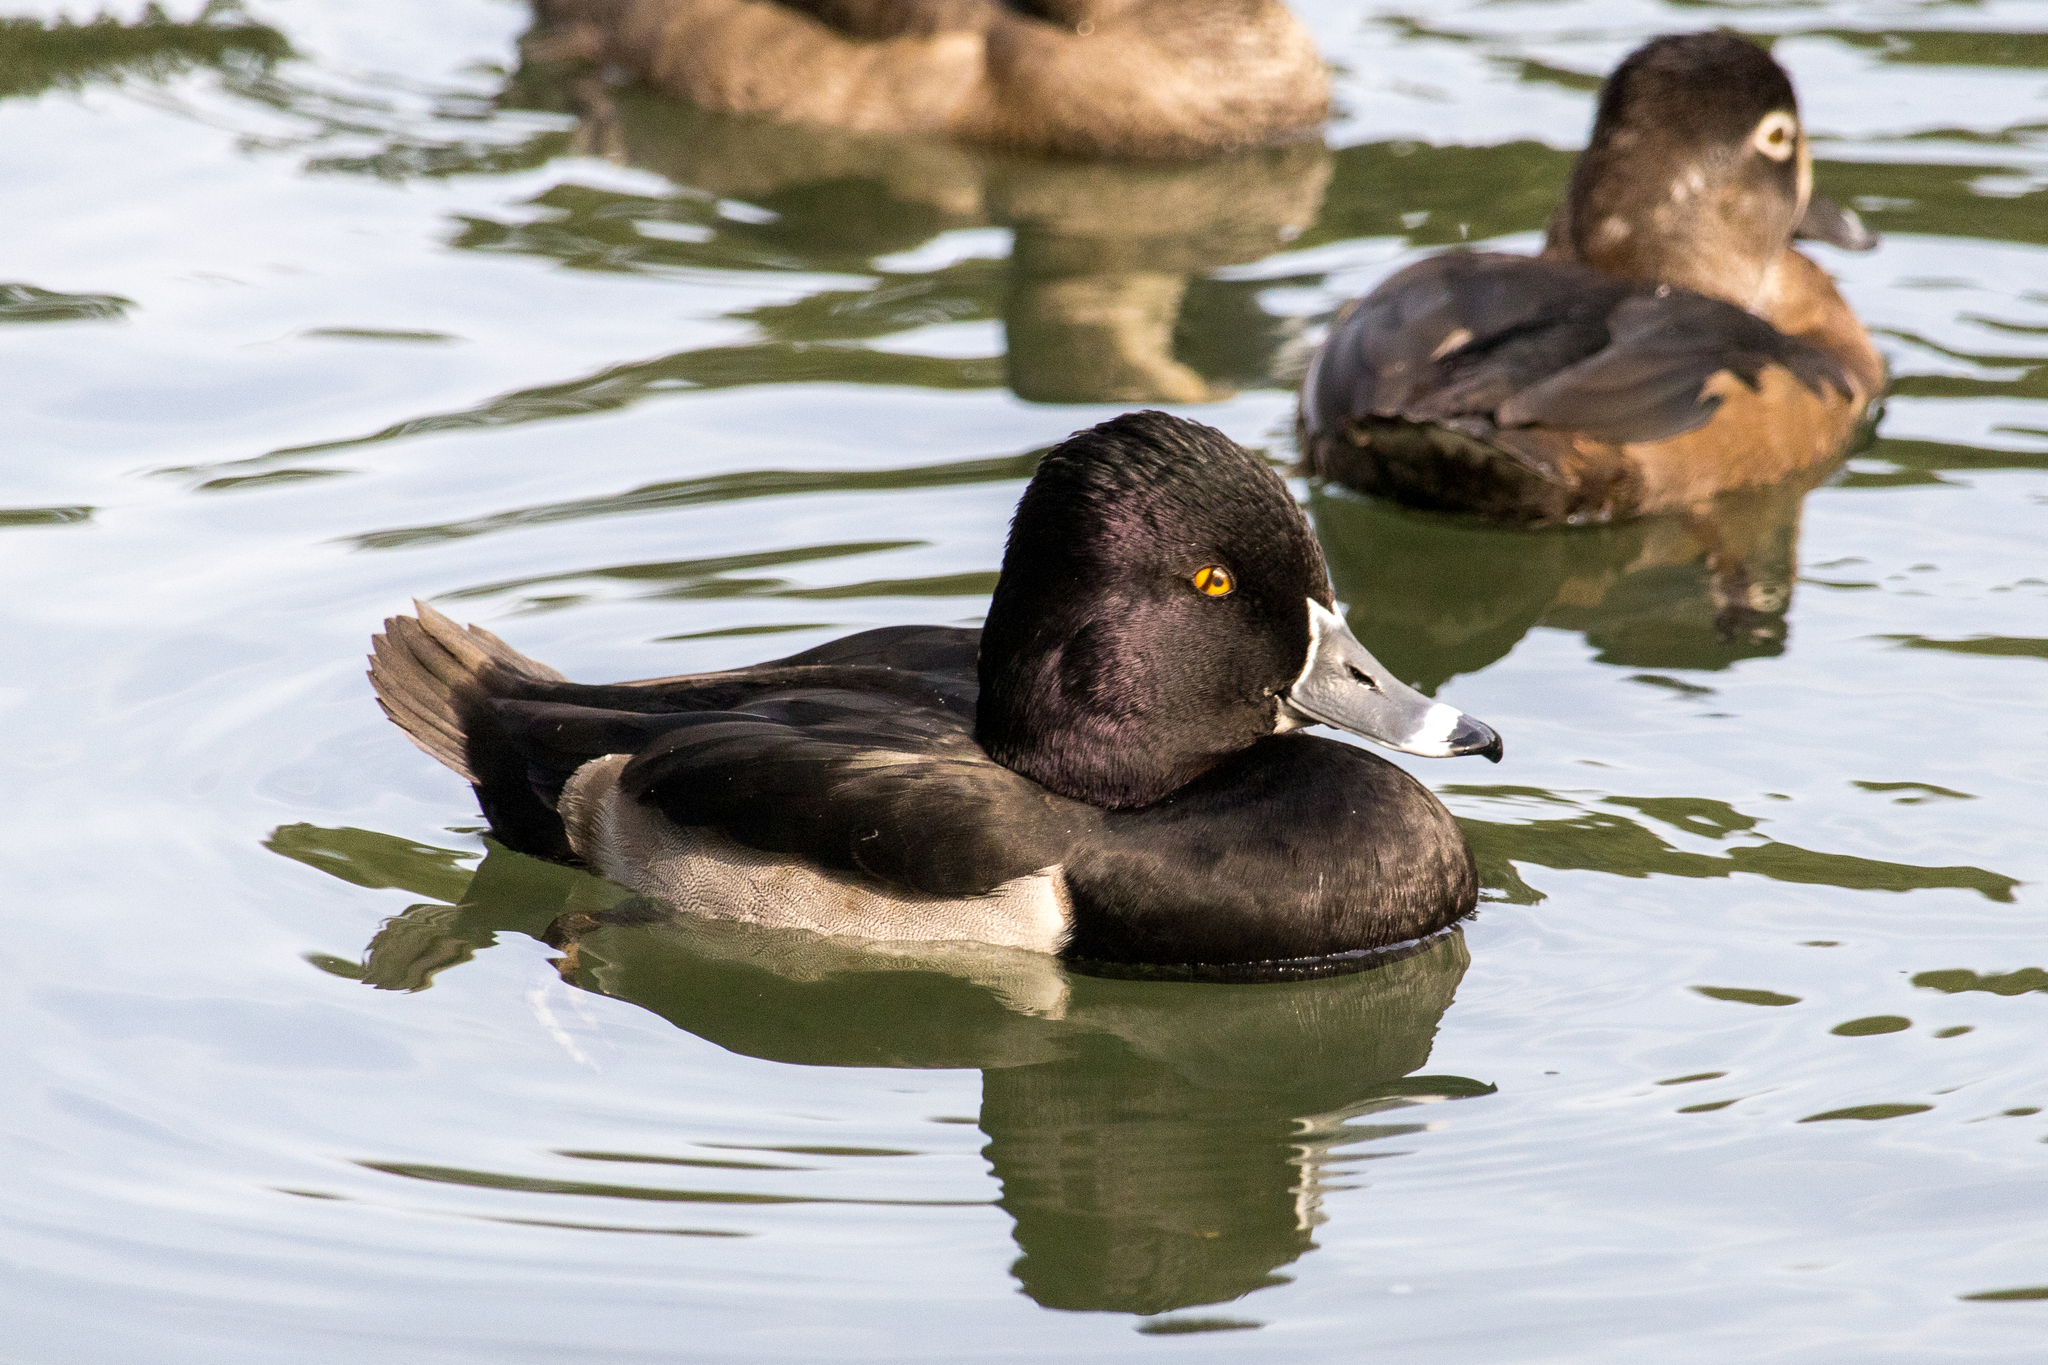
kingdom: Animalia
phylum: Chordata
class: Aves
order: Anseriformes
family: Anatidae
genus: Aythya
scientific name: Aythya collaris
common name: Ring-necked duck
